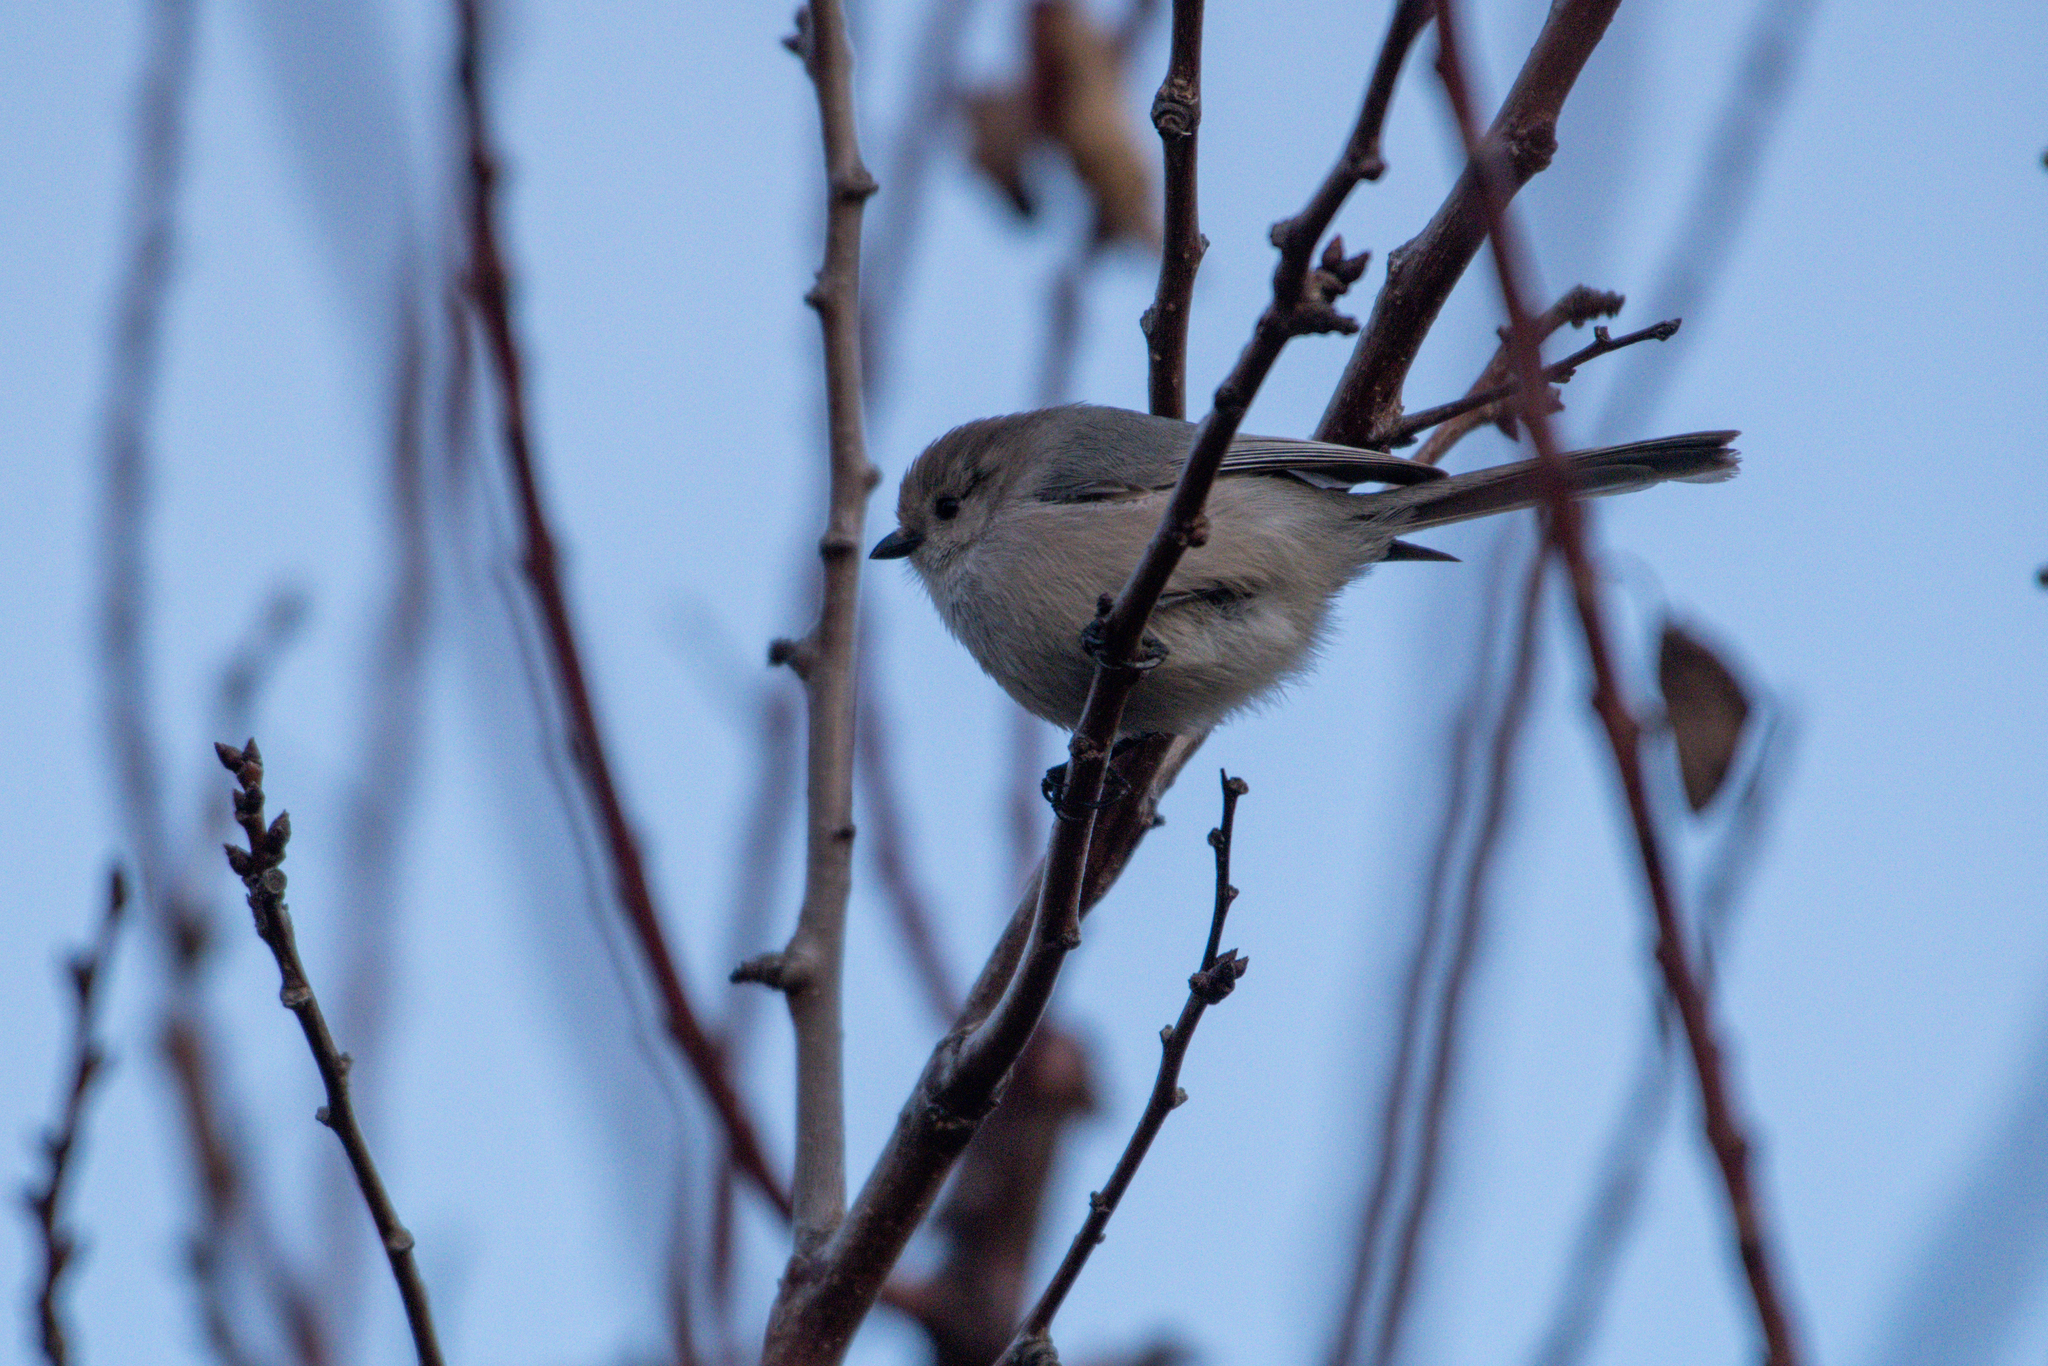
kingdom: Animalia
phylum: Chordata
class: Aves
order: Passeriformes
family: Aegithalidae
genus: Psaltriparus
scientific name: Psaltriparus minimus
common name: American bushtit
